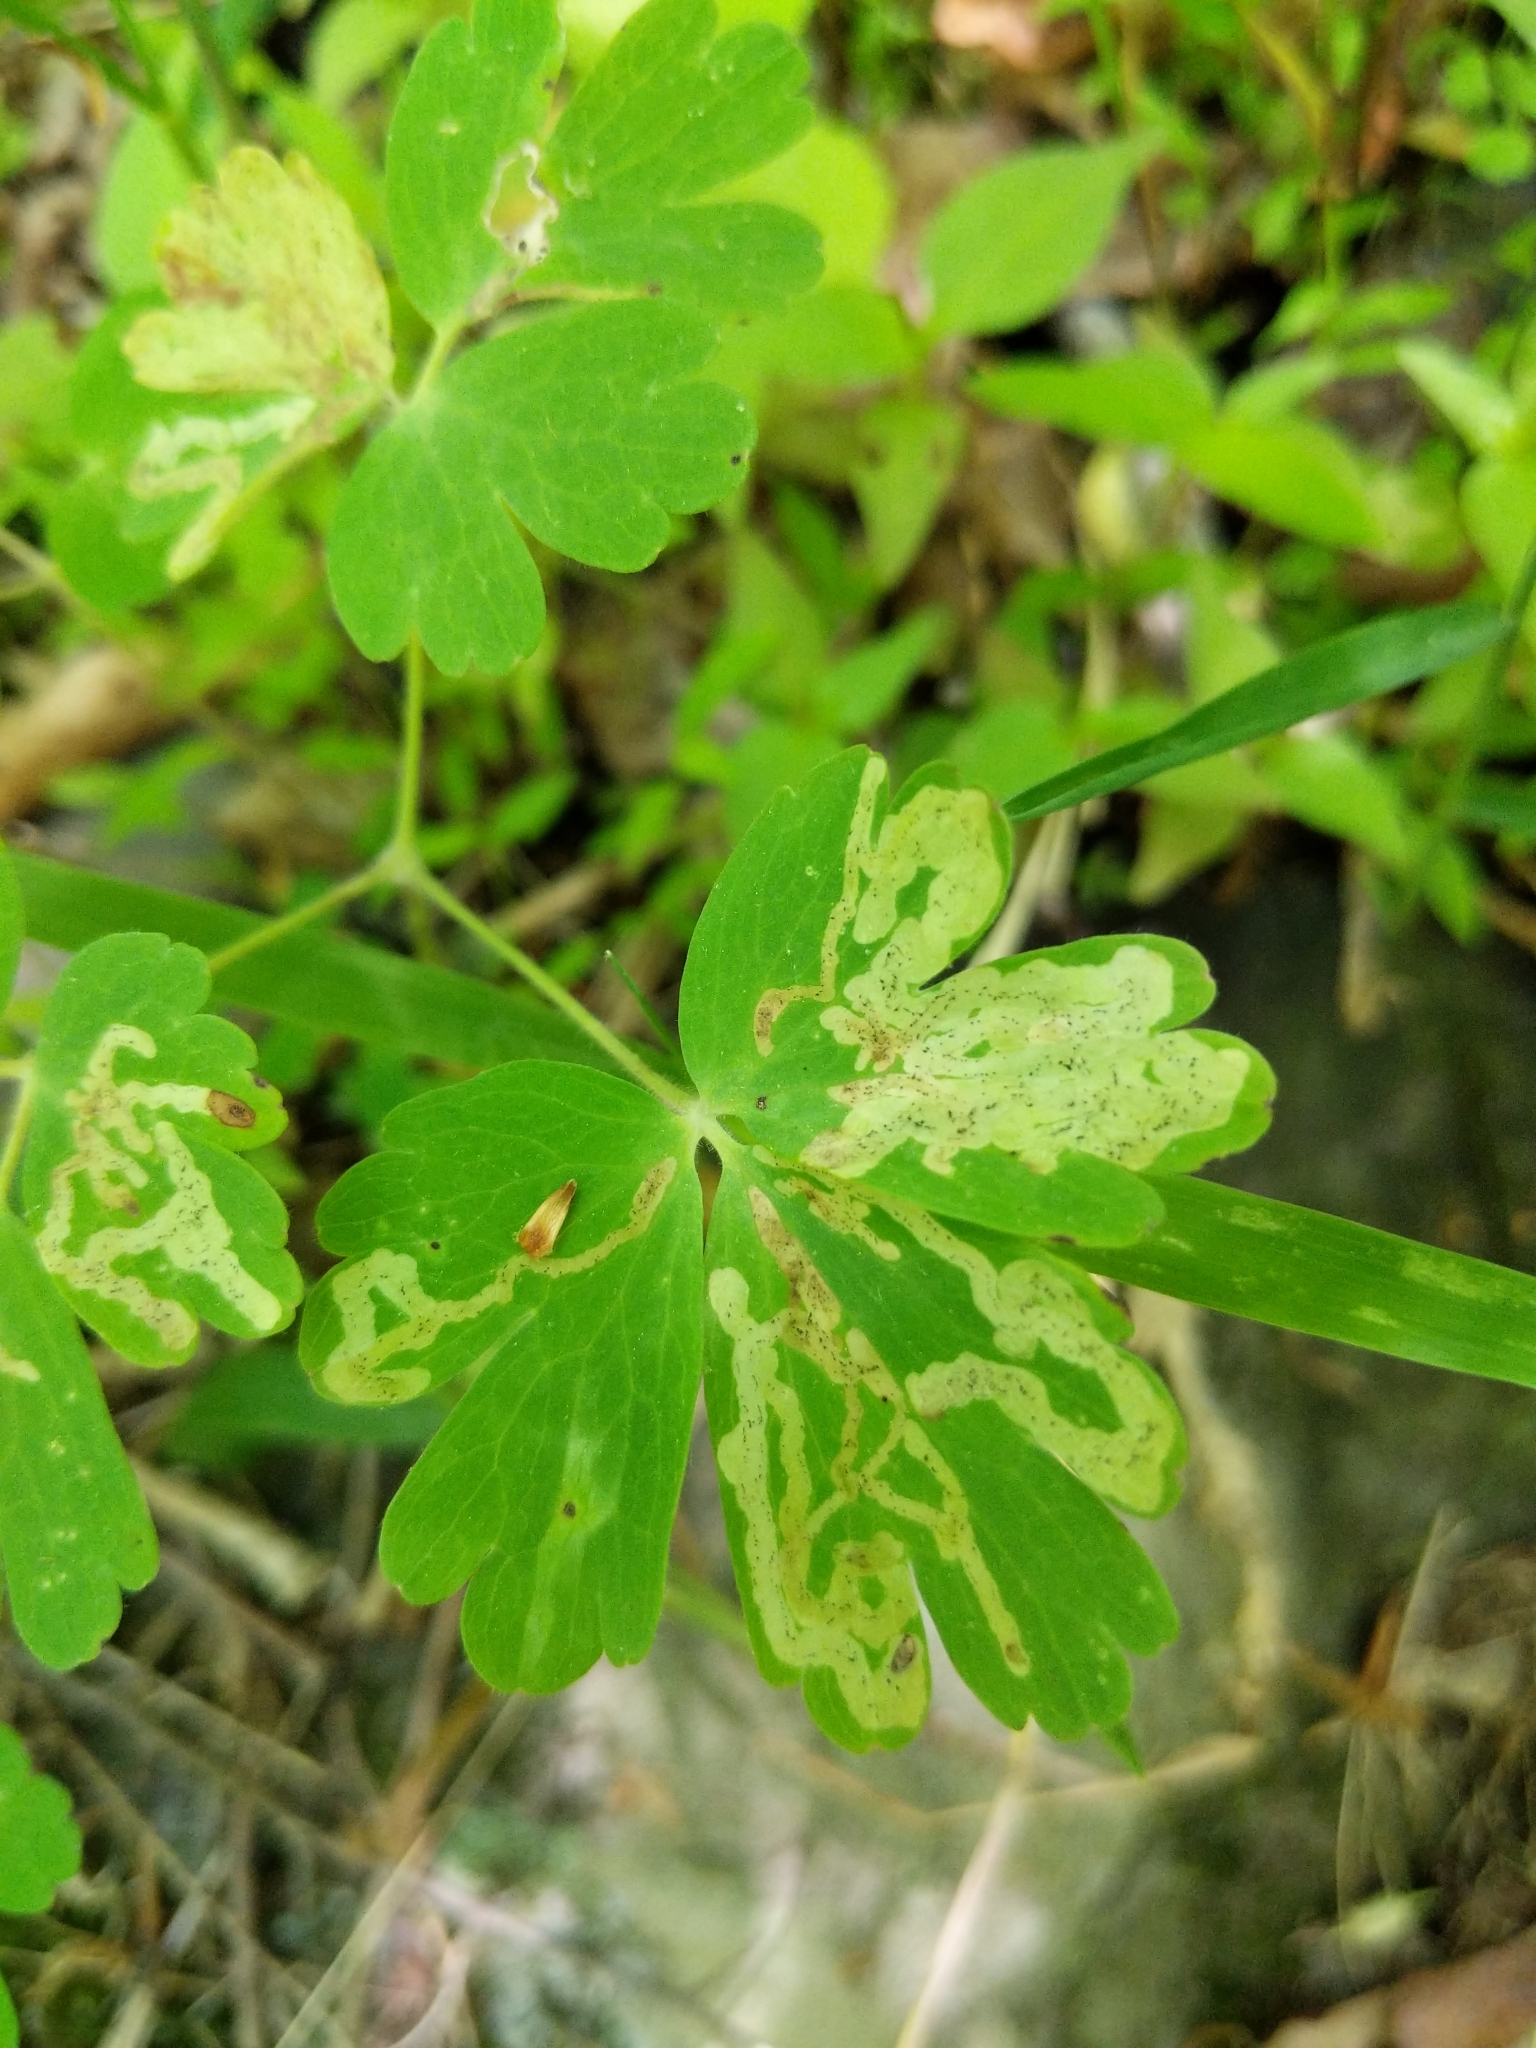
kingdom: Animalia
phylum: Arthropoda
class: Insecta
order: Diptera
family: Agromyzidae
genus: Phytomyza
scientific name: Phytomyza
